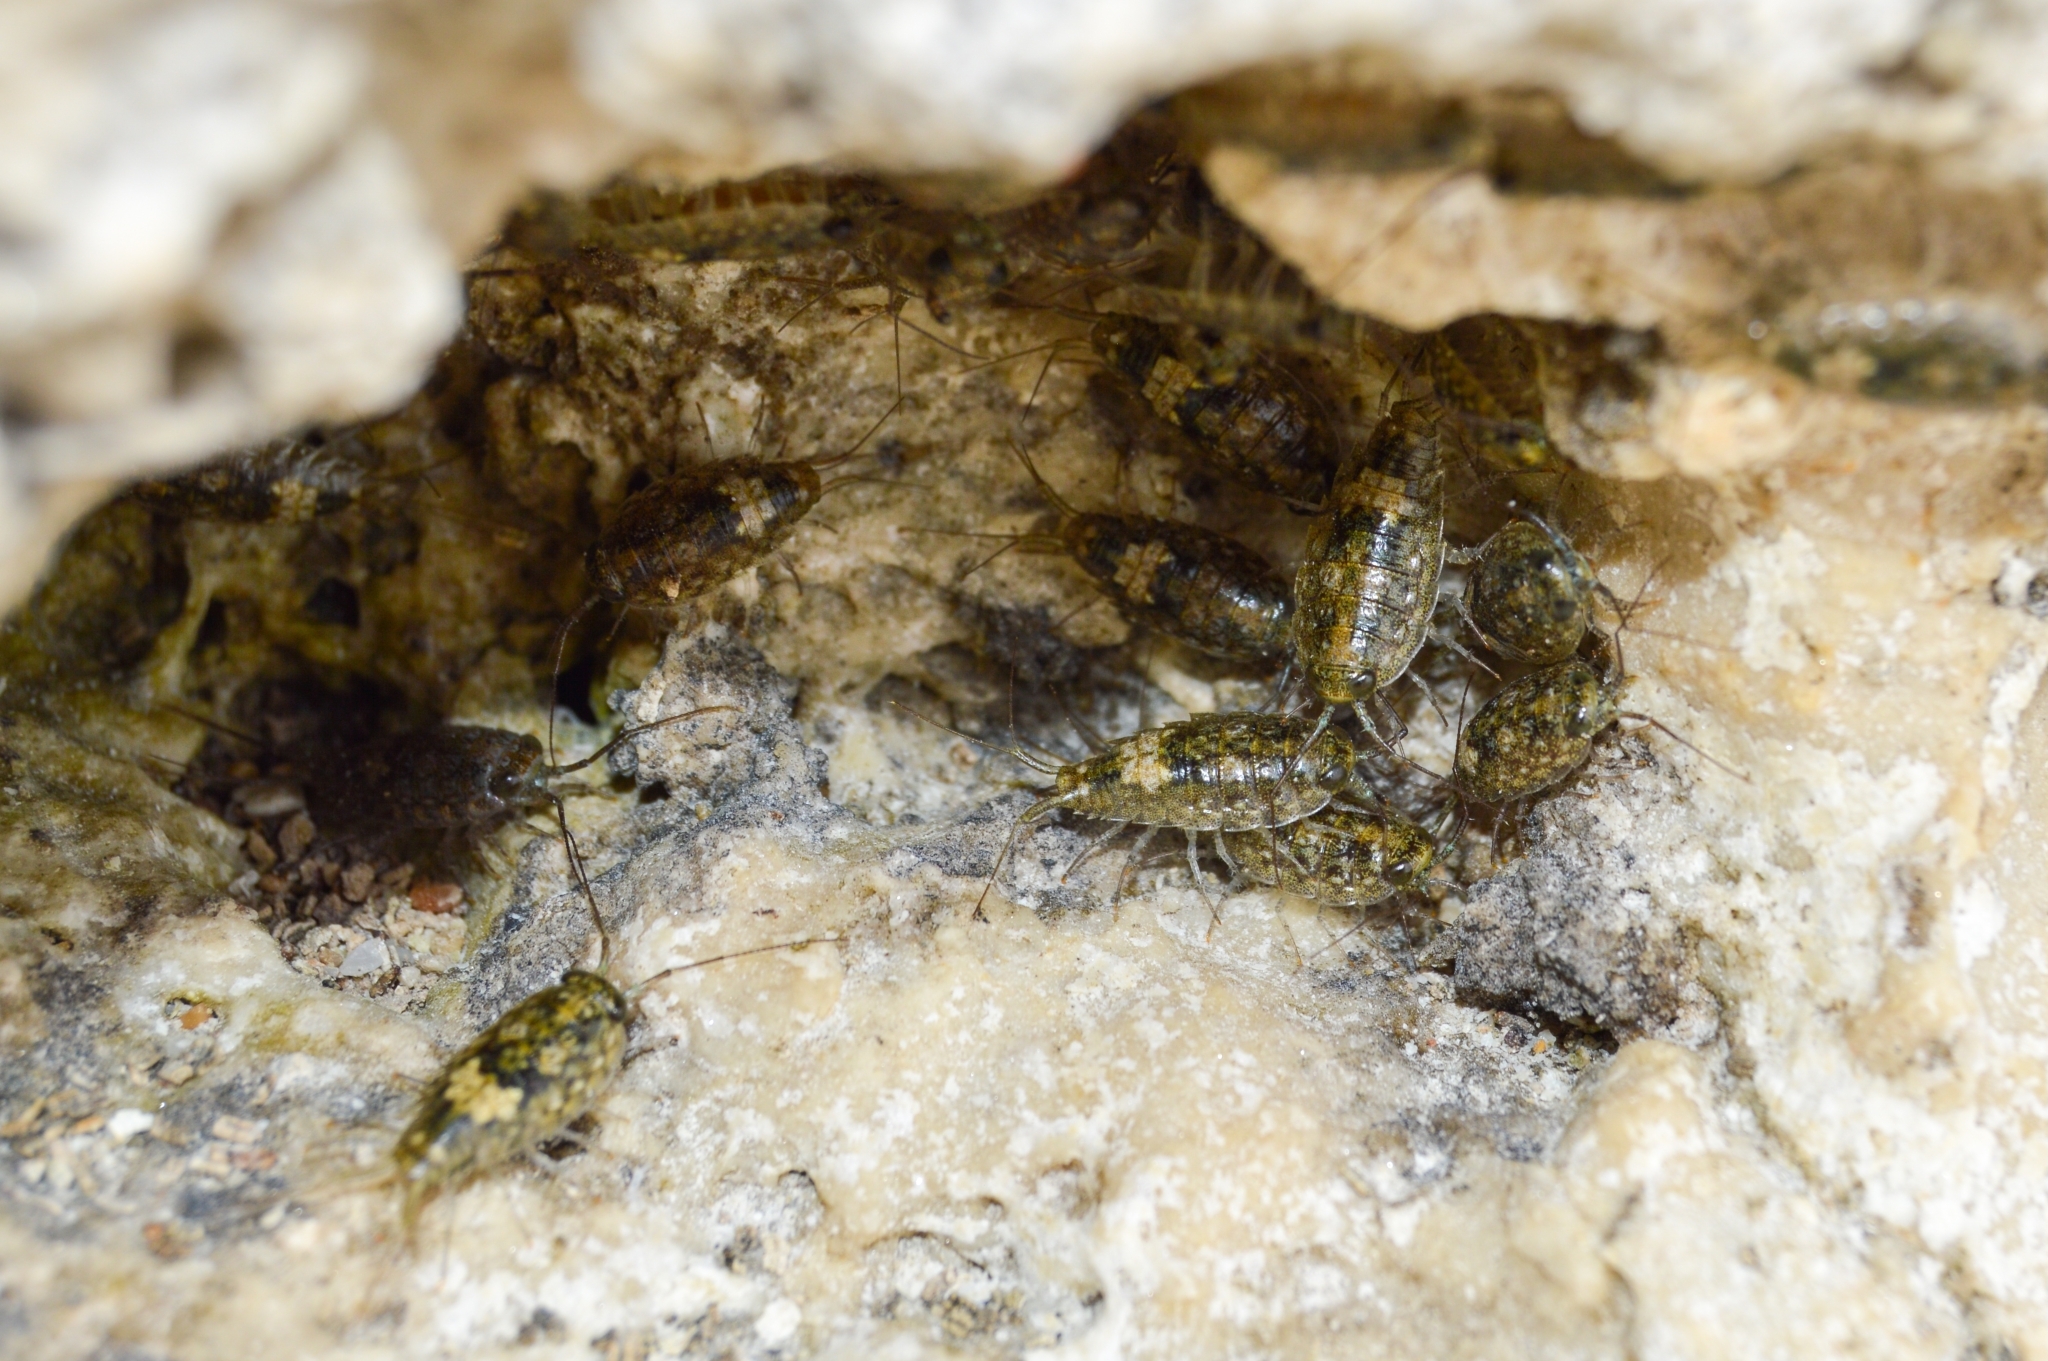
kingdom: Animalia
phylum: Arthropoda
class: Malacostraca
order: Isopoda
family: Ligiidae
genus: Ligia
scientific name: Ligia italica
